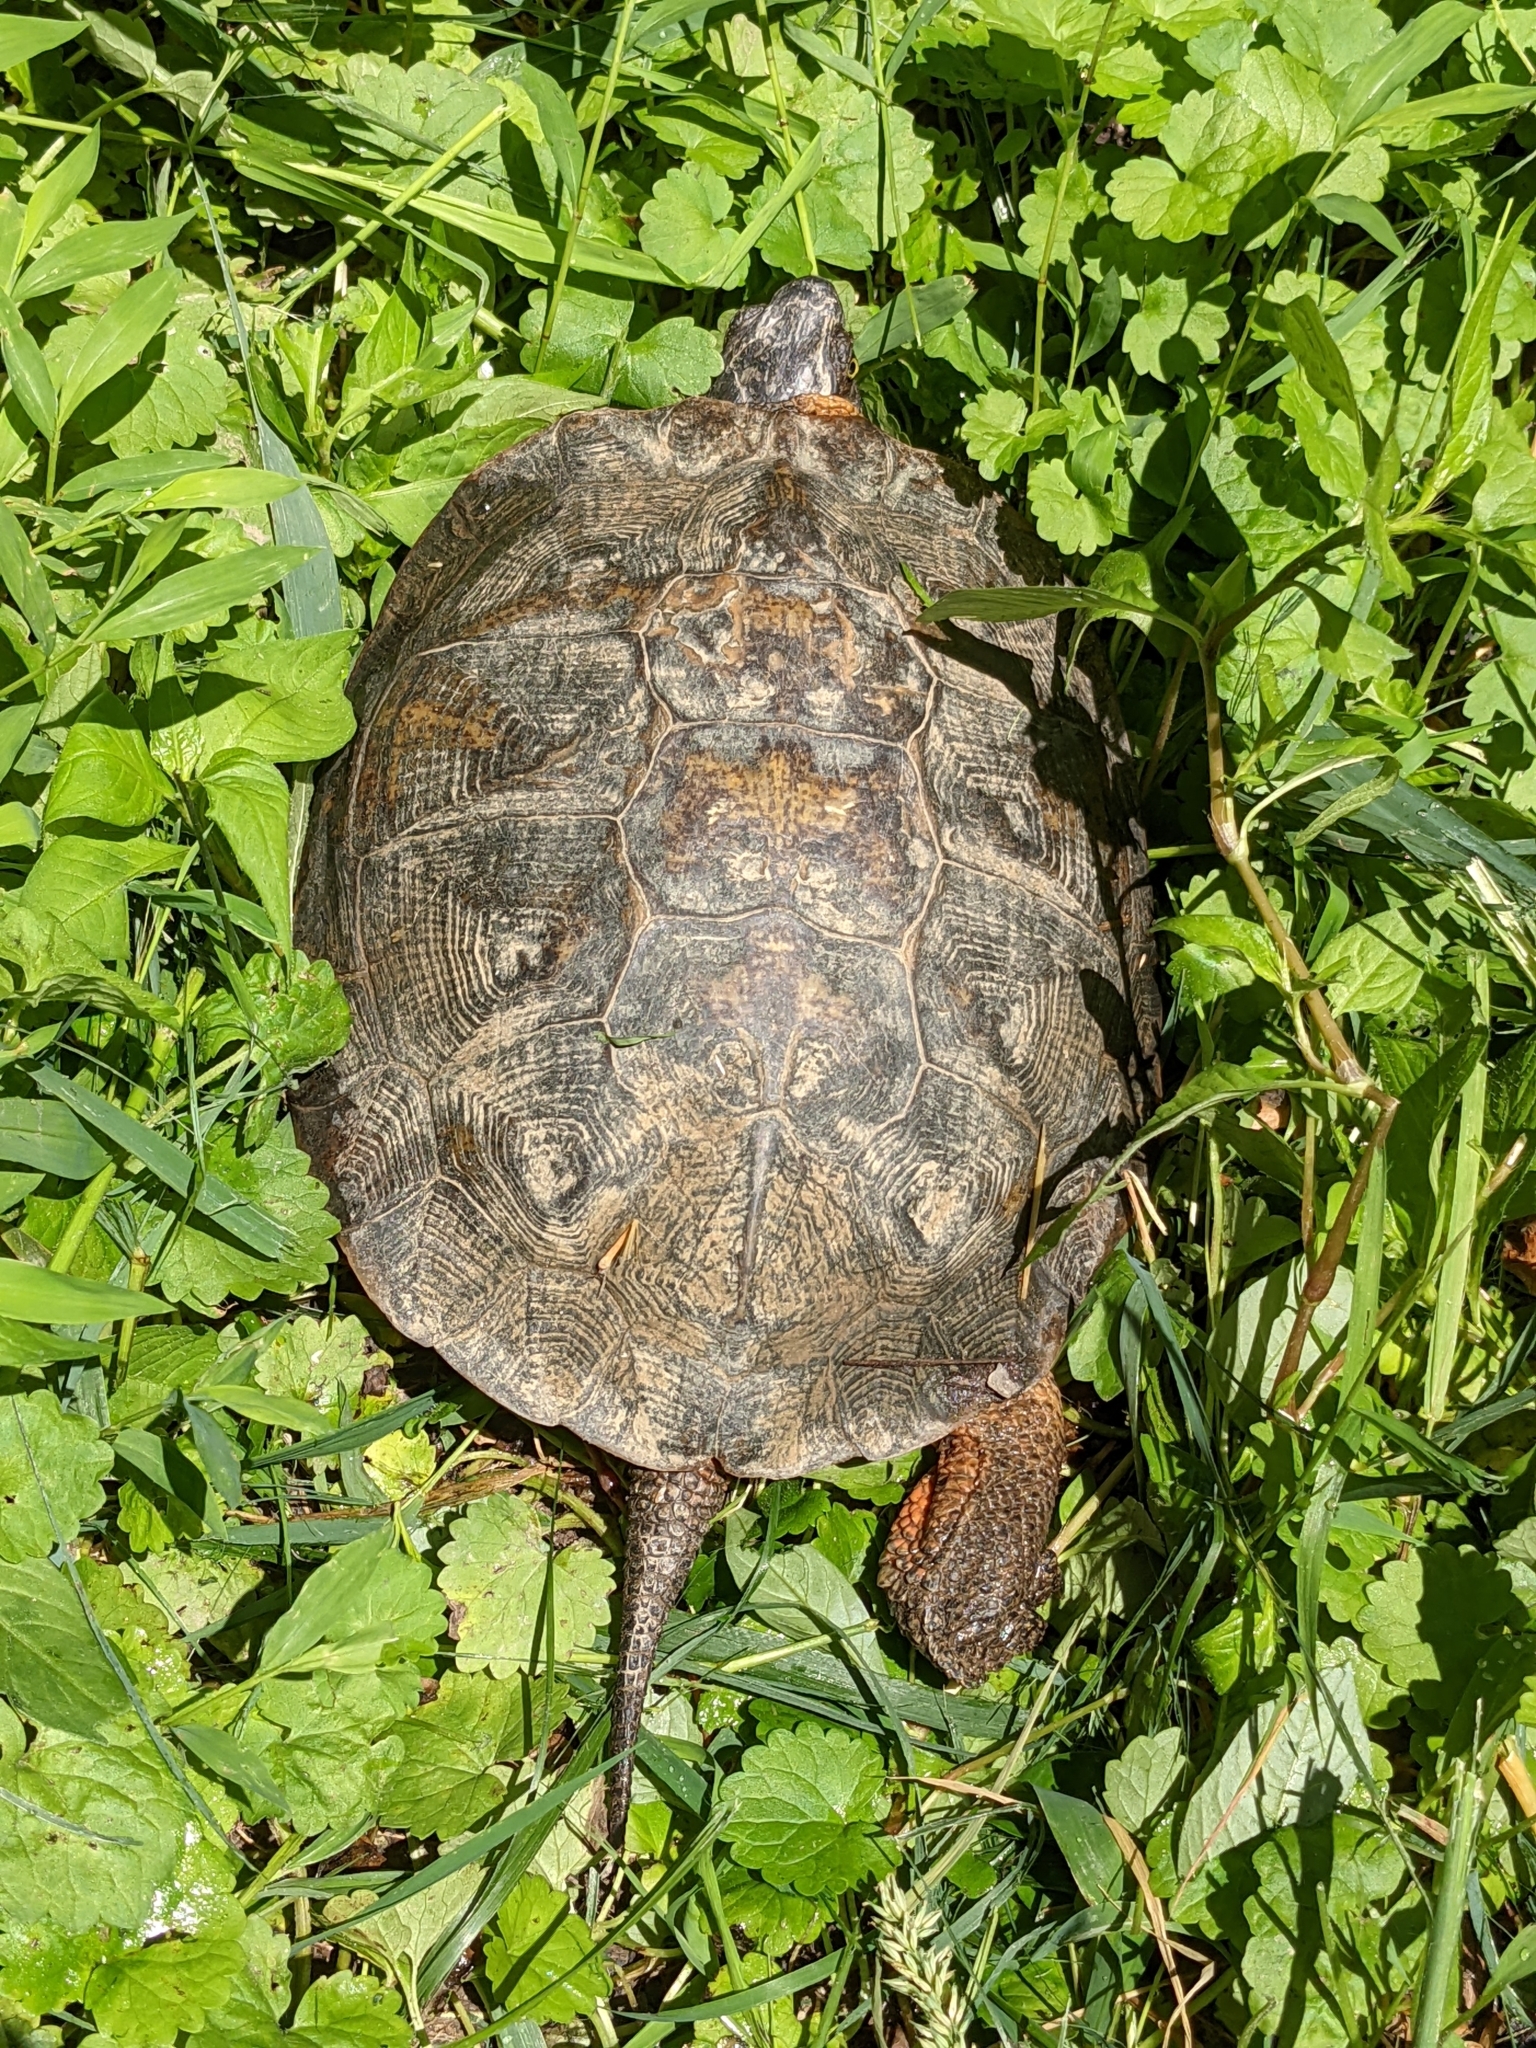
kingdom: Animalia
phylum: Chordata
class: Testudines
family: Emydidae
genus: Glyptemys
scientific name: Glyptemys insculpta
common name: Wood turtle
